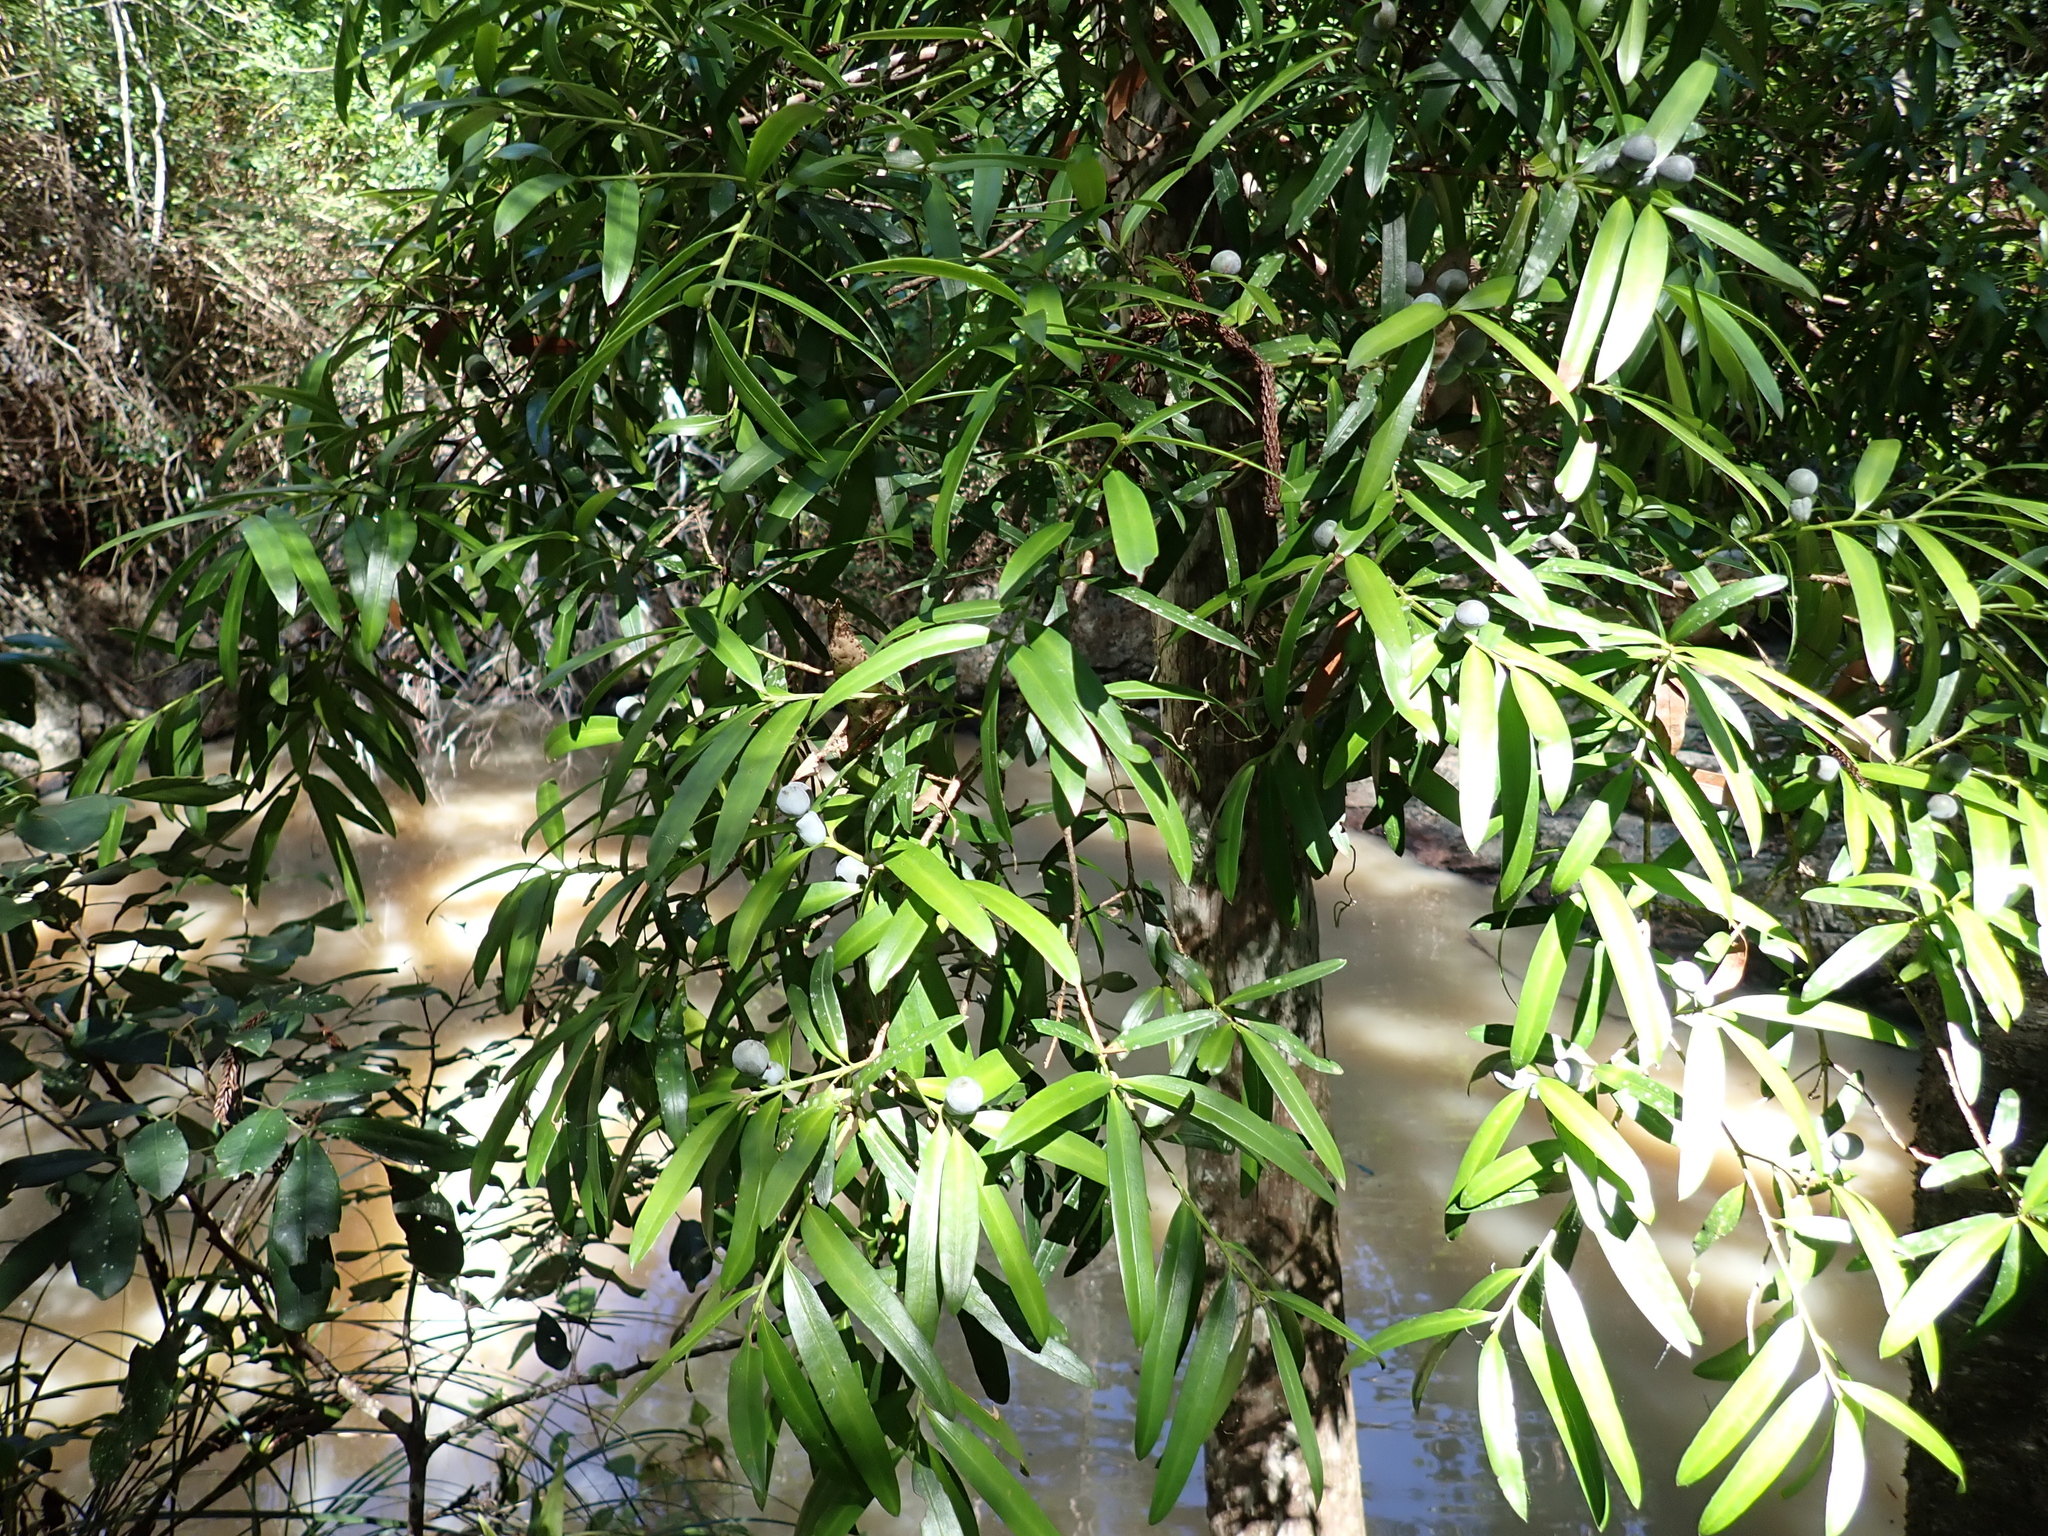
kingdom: Plantae
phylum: Tracheophyta
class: Pinopsida
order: Pinales
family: Podocarpaceae
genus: Podocarpus
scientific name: Podocarpus elatus
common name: Plum pine
